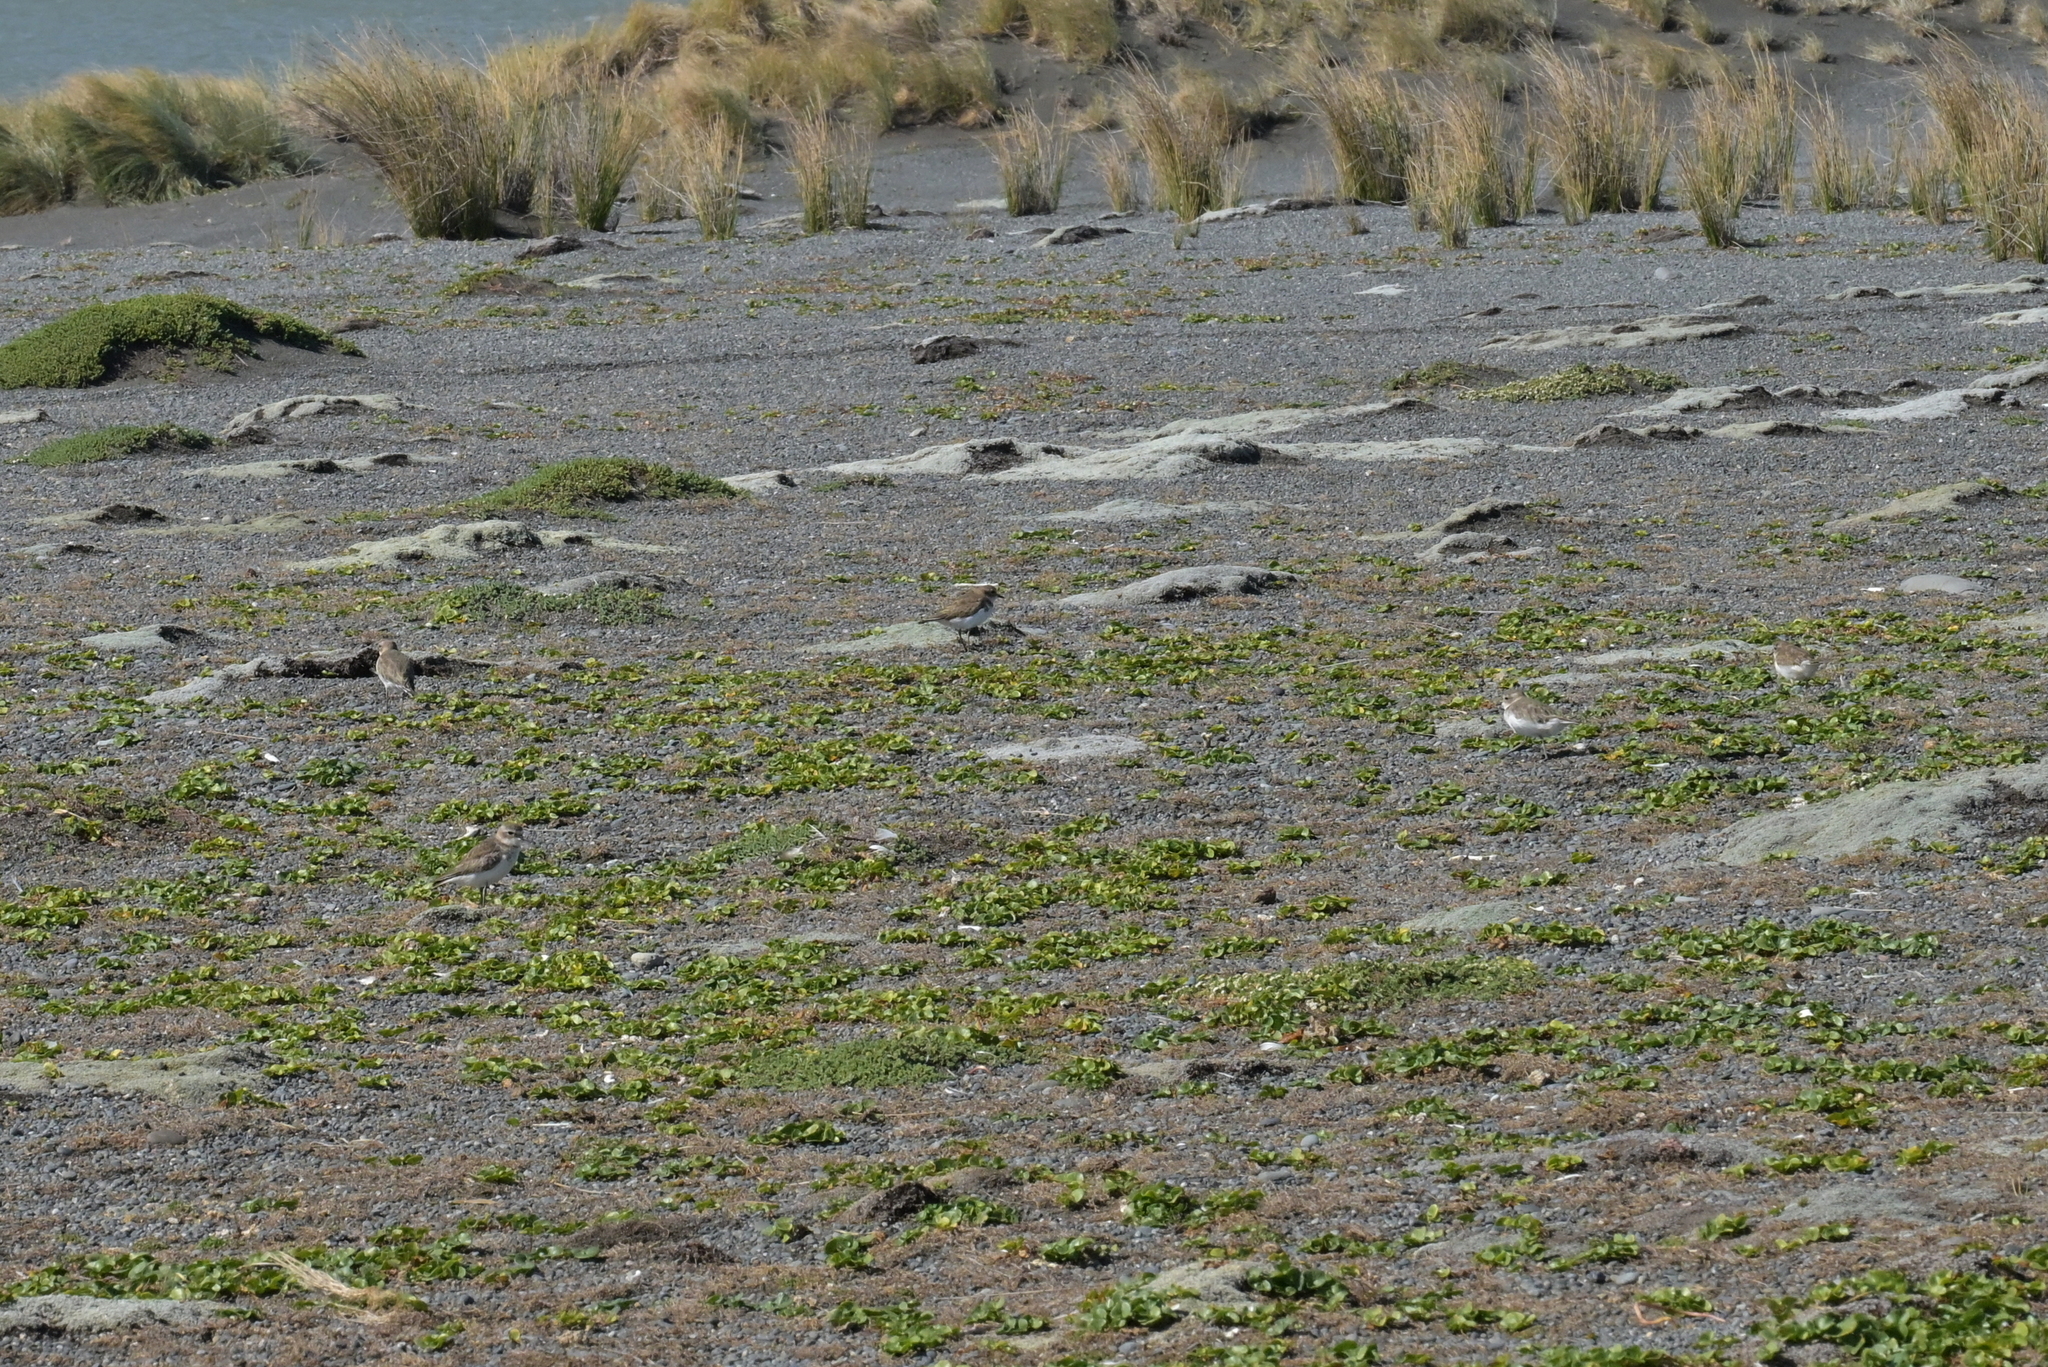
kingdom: Animalia
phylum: Chordata
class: Aves
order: Charadriiformes
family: Charadriidae
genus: Anarhynchus
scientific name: Anarhynchus
